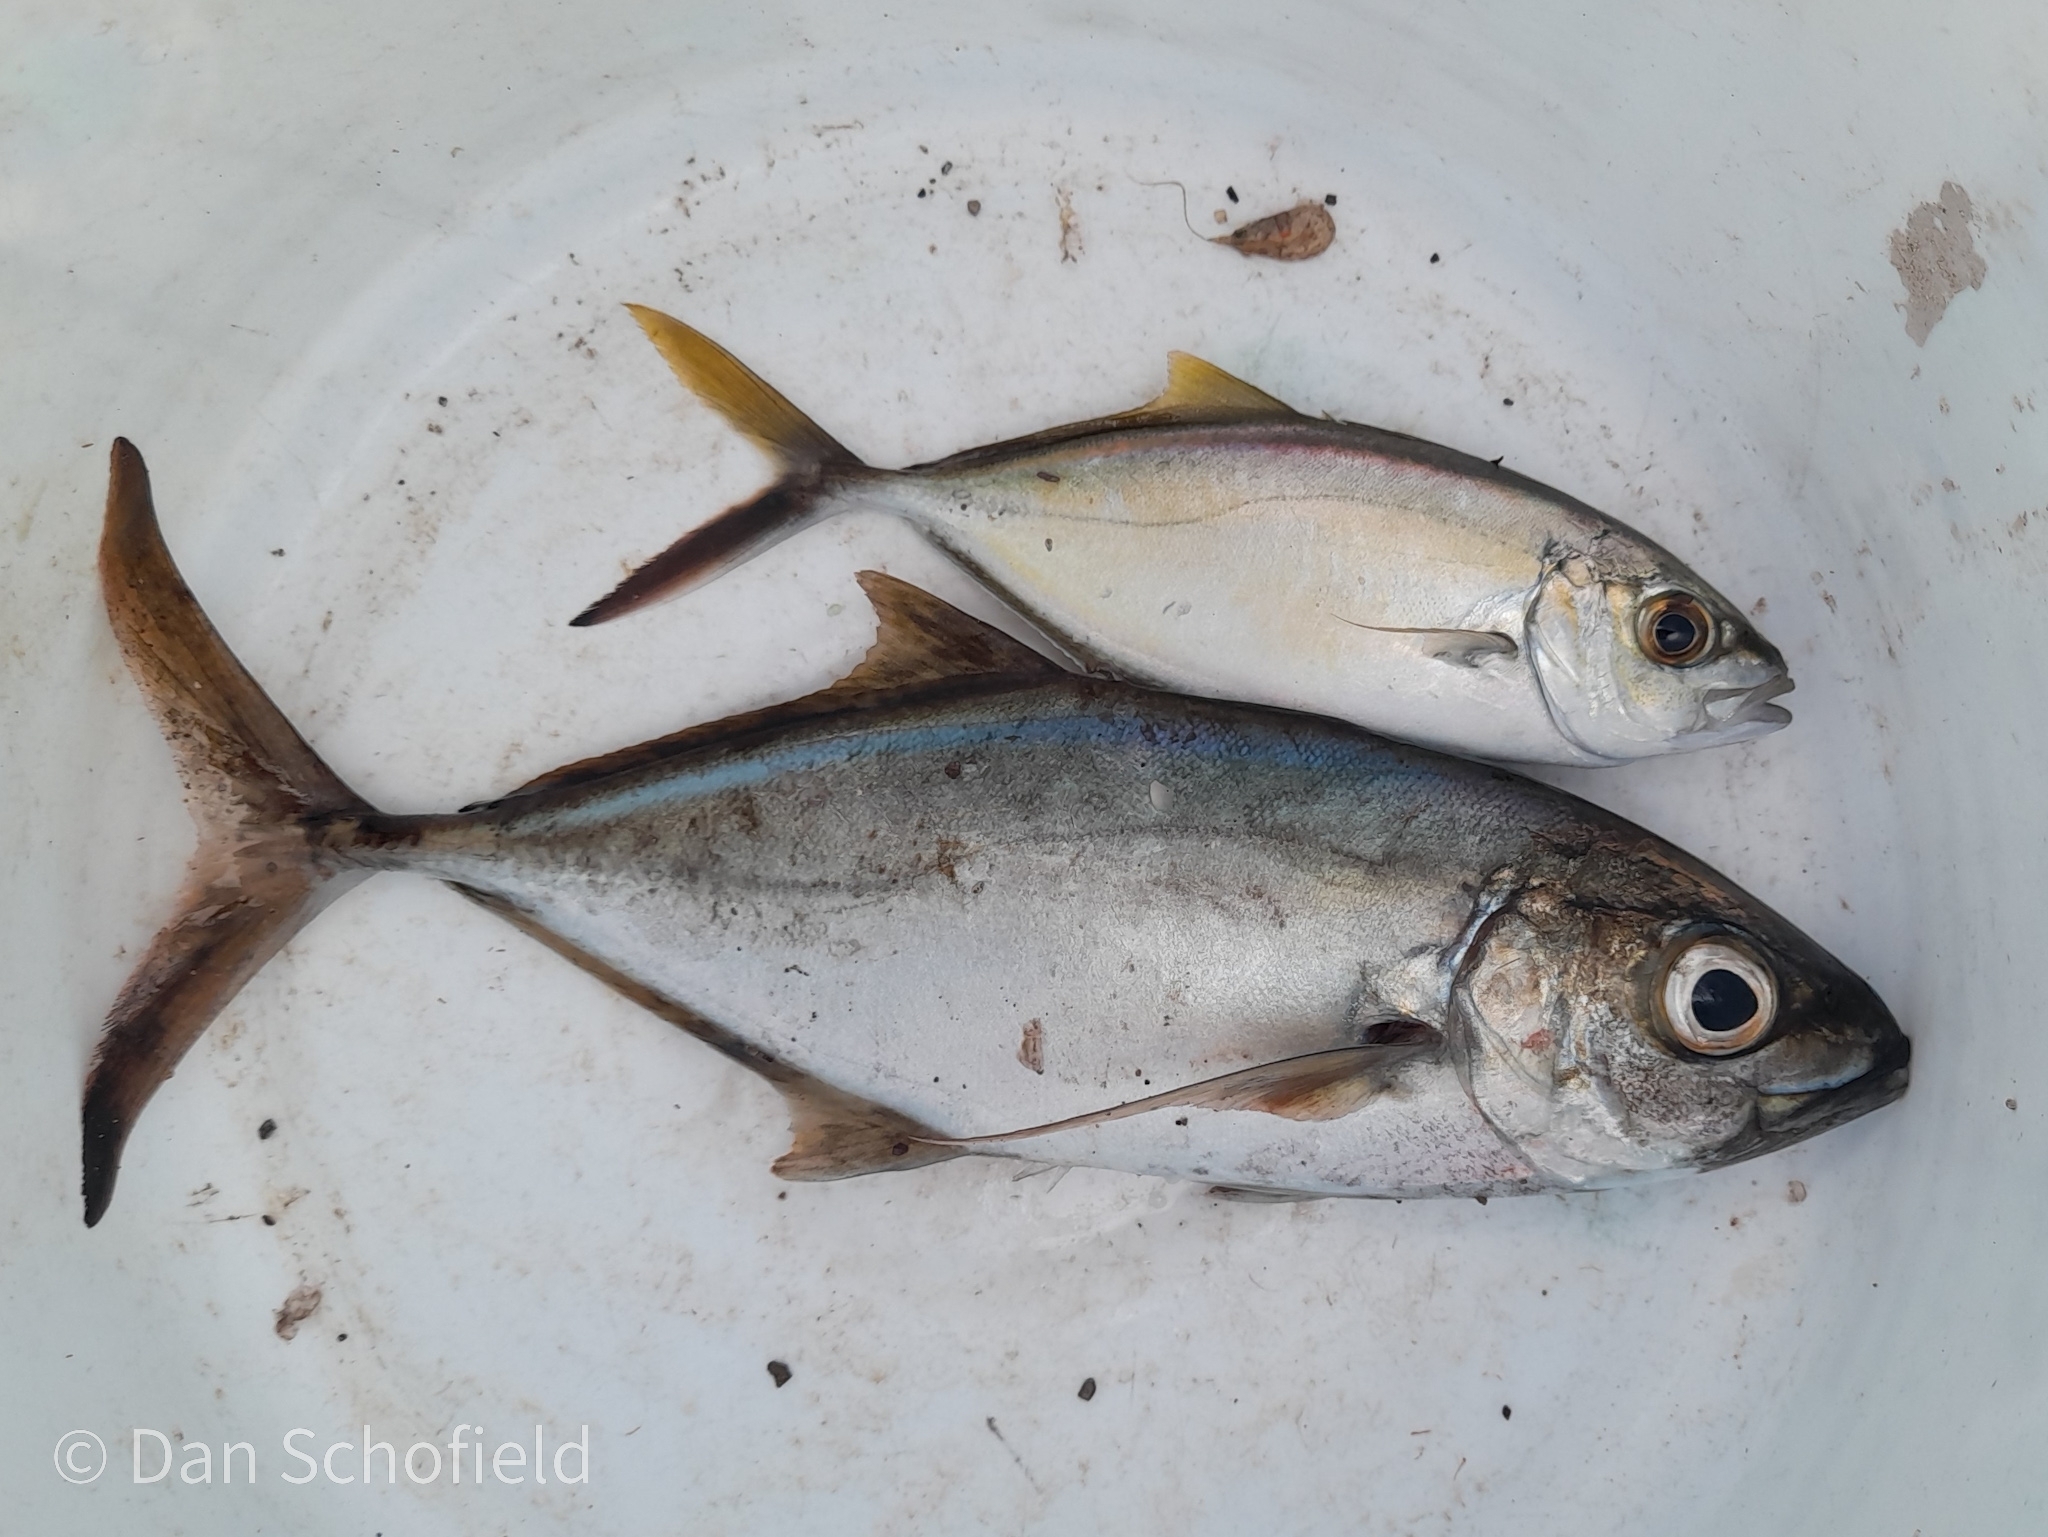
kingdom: Animalia
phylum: Chordata
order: Perciformes
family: Carangidae
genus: Caranx
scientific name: Caranx ruber
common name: Bar jack
